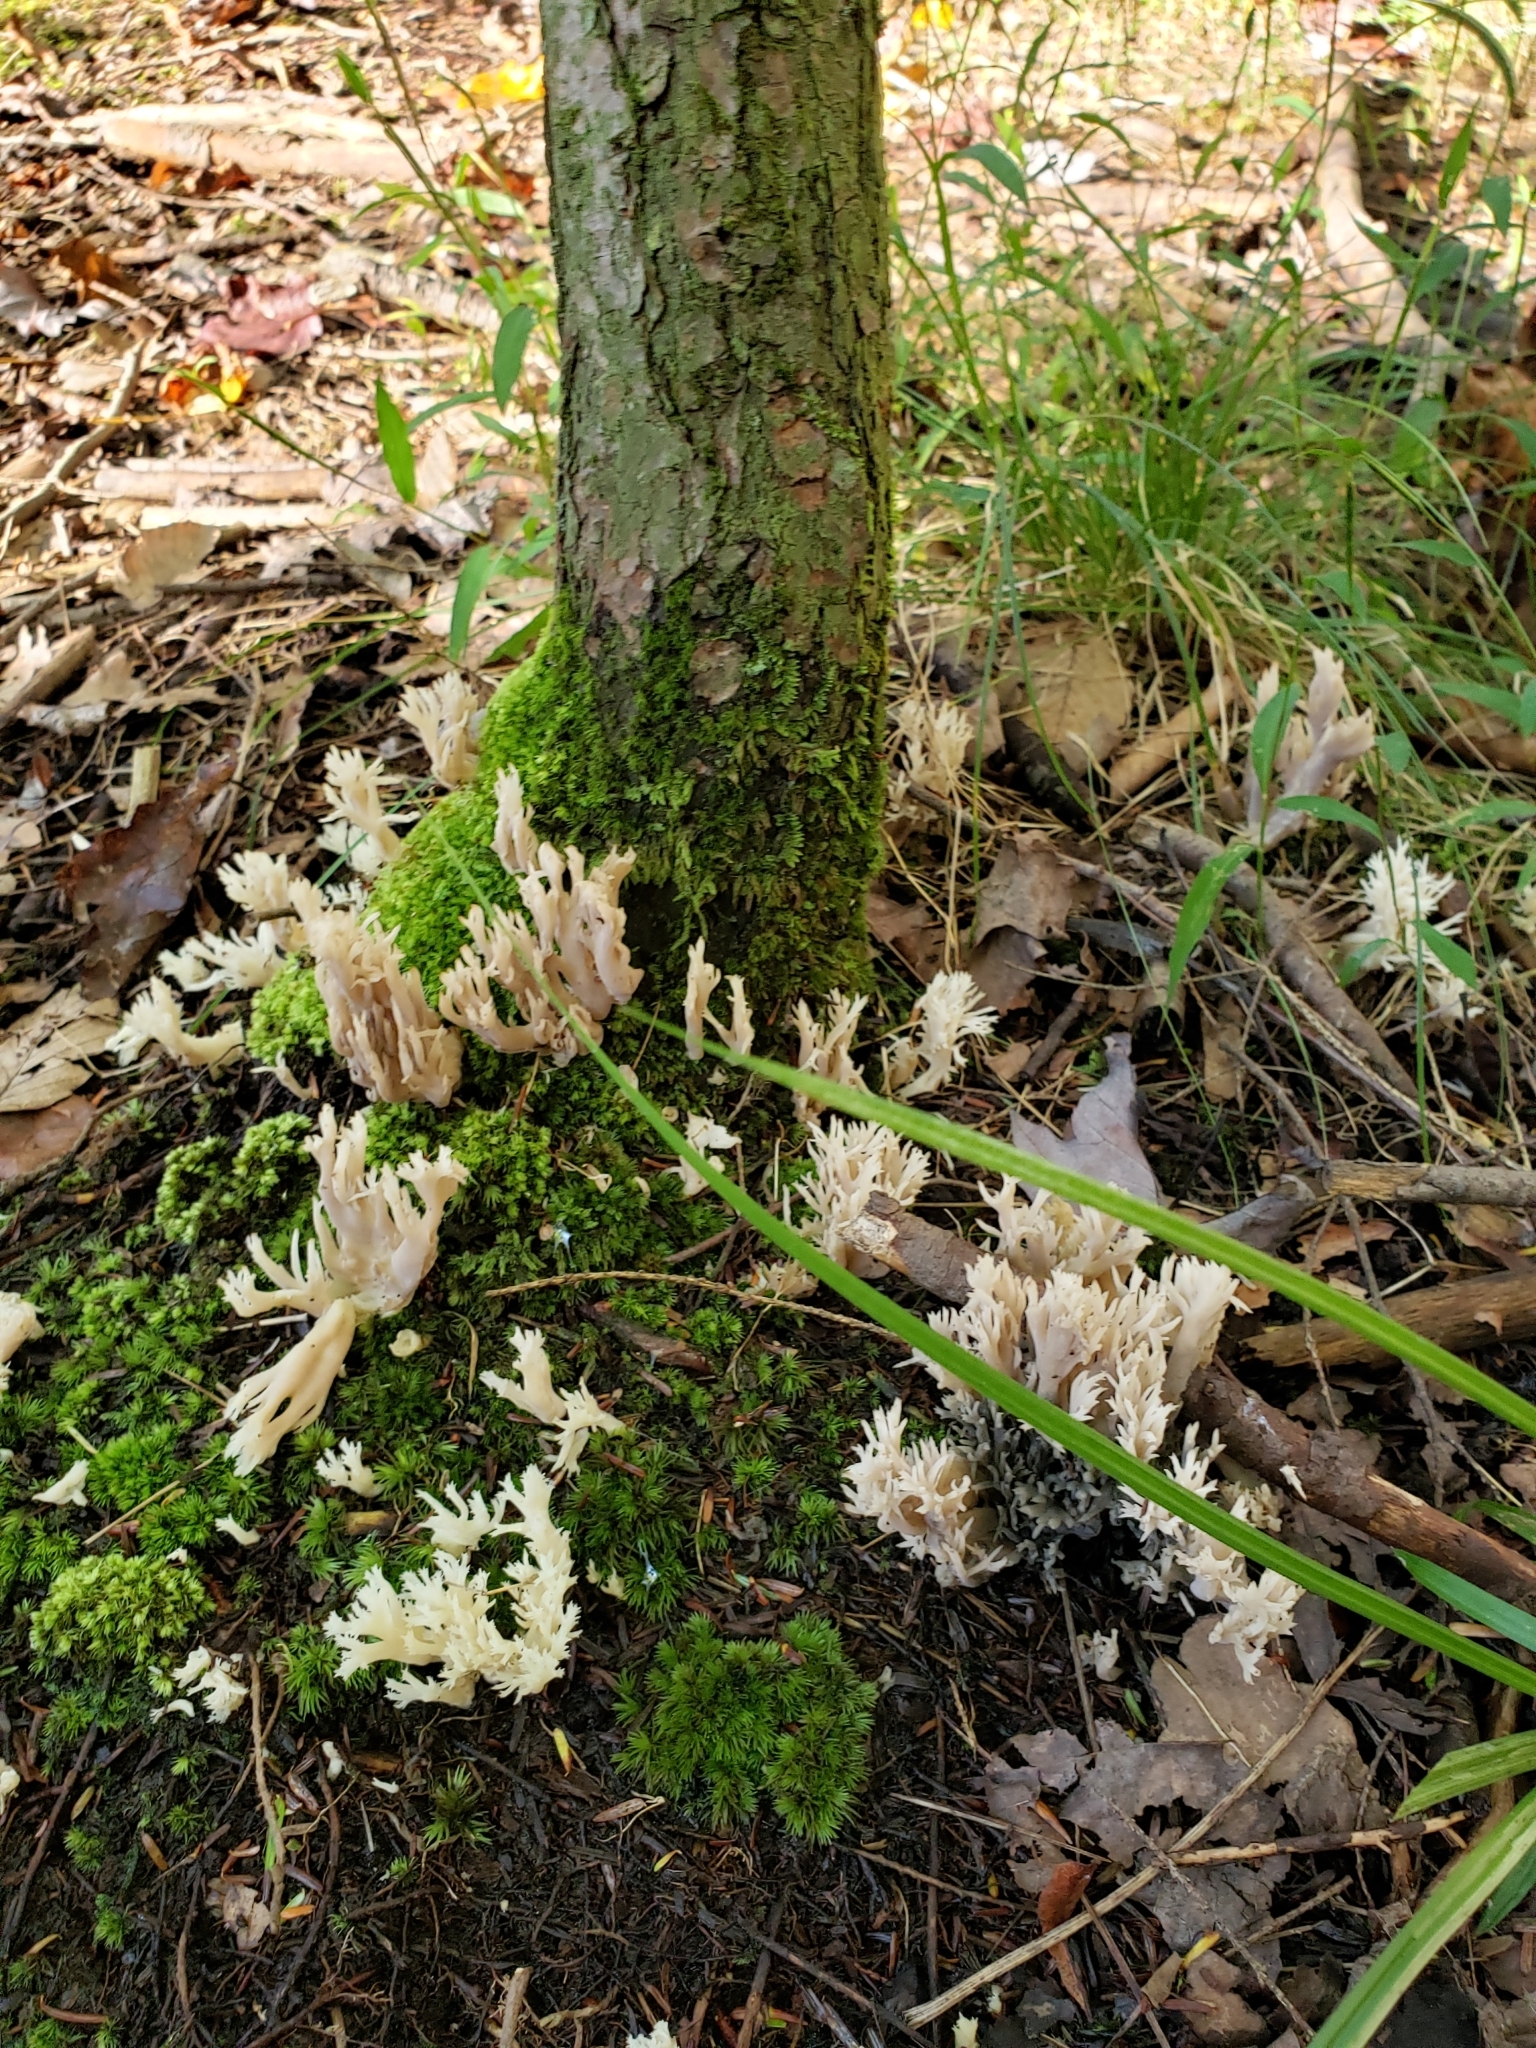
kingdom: Fungi
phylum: Basidiomycota
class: Agaricomycetes
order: Cantharellales
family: Hydnaceae
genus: Clavulina
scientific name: Clavulina coralloides
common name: Crested coral
